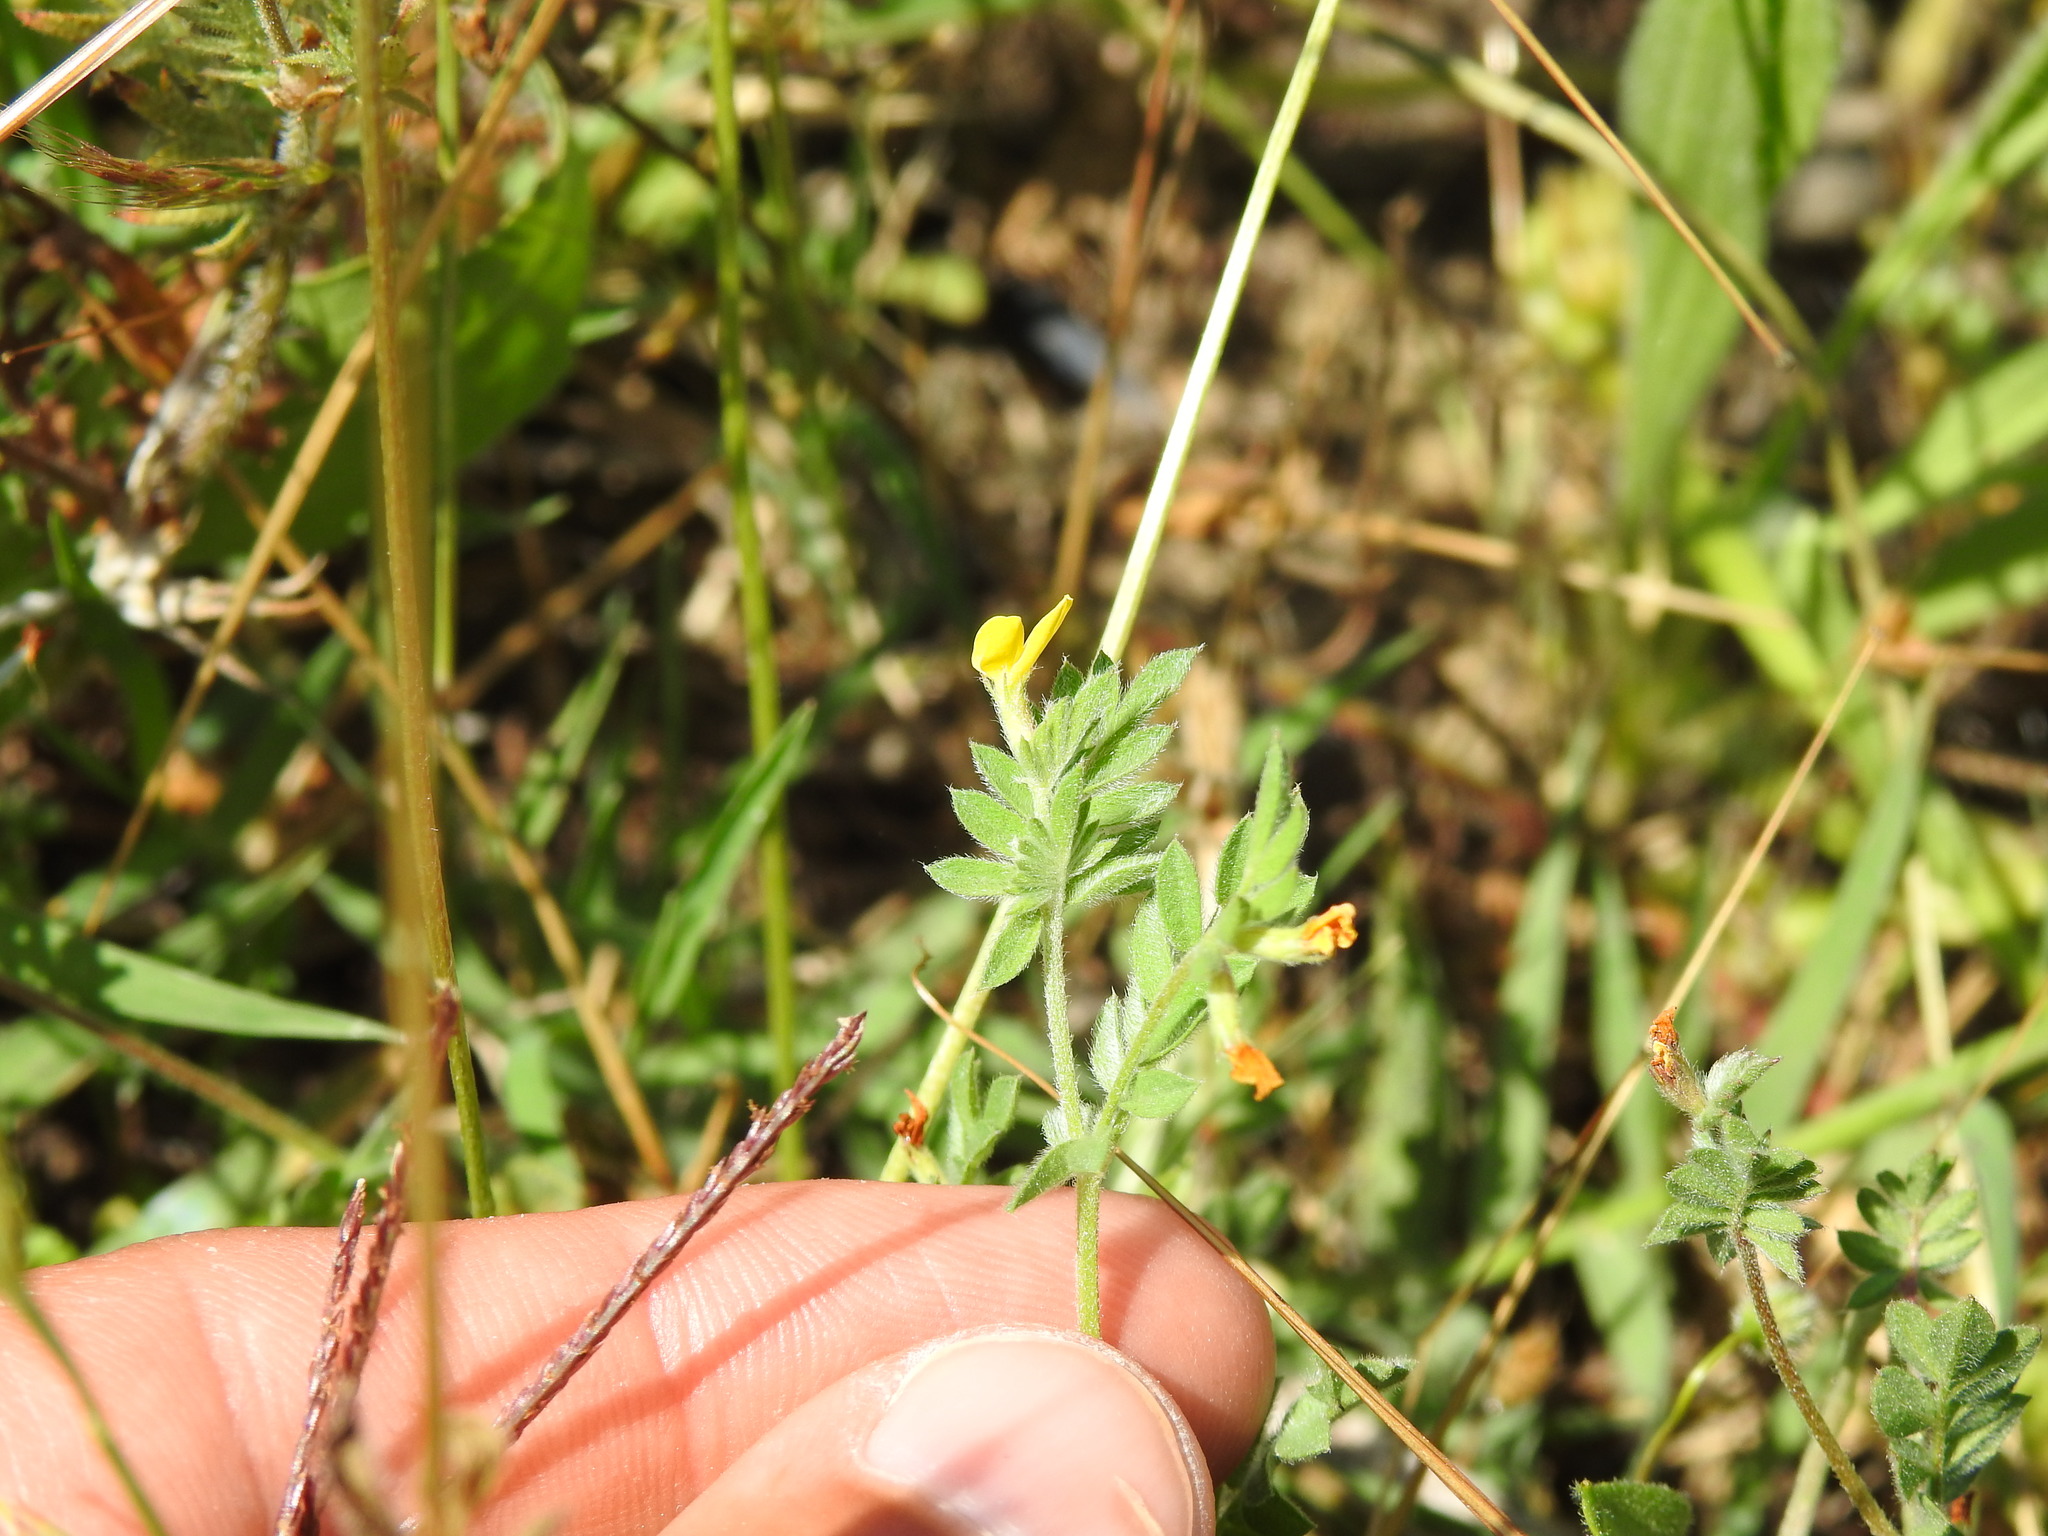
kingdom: Plantae
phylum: Tracheophyta
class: Magnoliopsida
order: Fabales
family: Fabaceae
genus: Ornithopus
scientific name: Ornithopus compressus
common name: Yellow serradella
